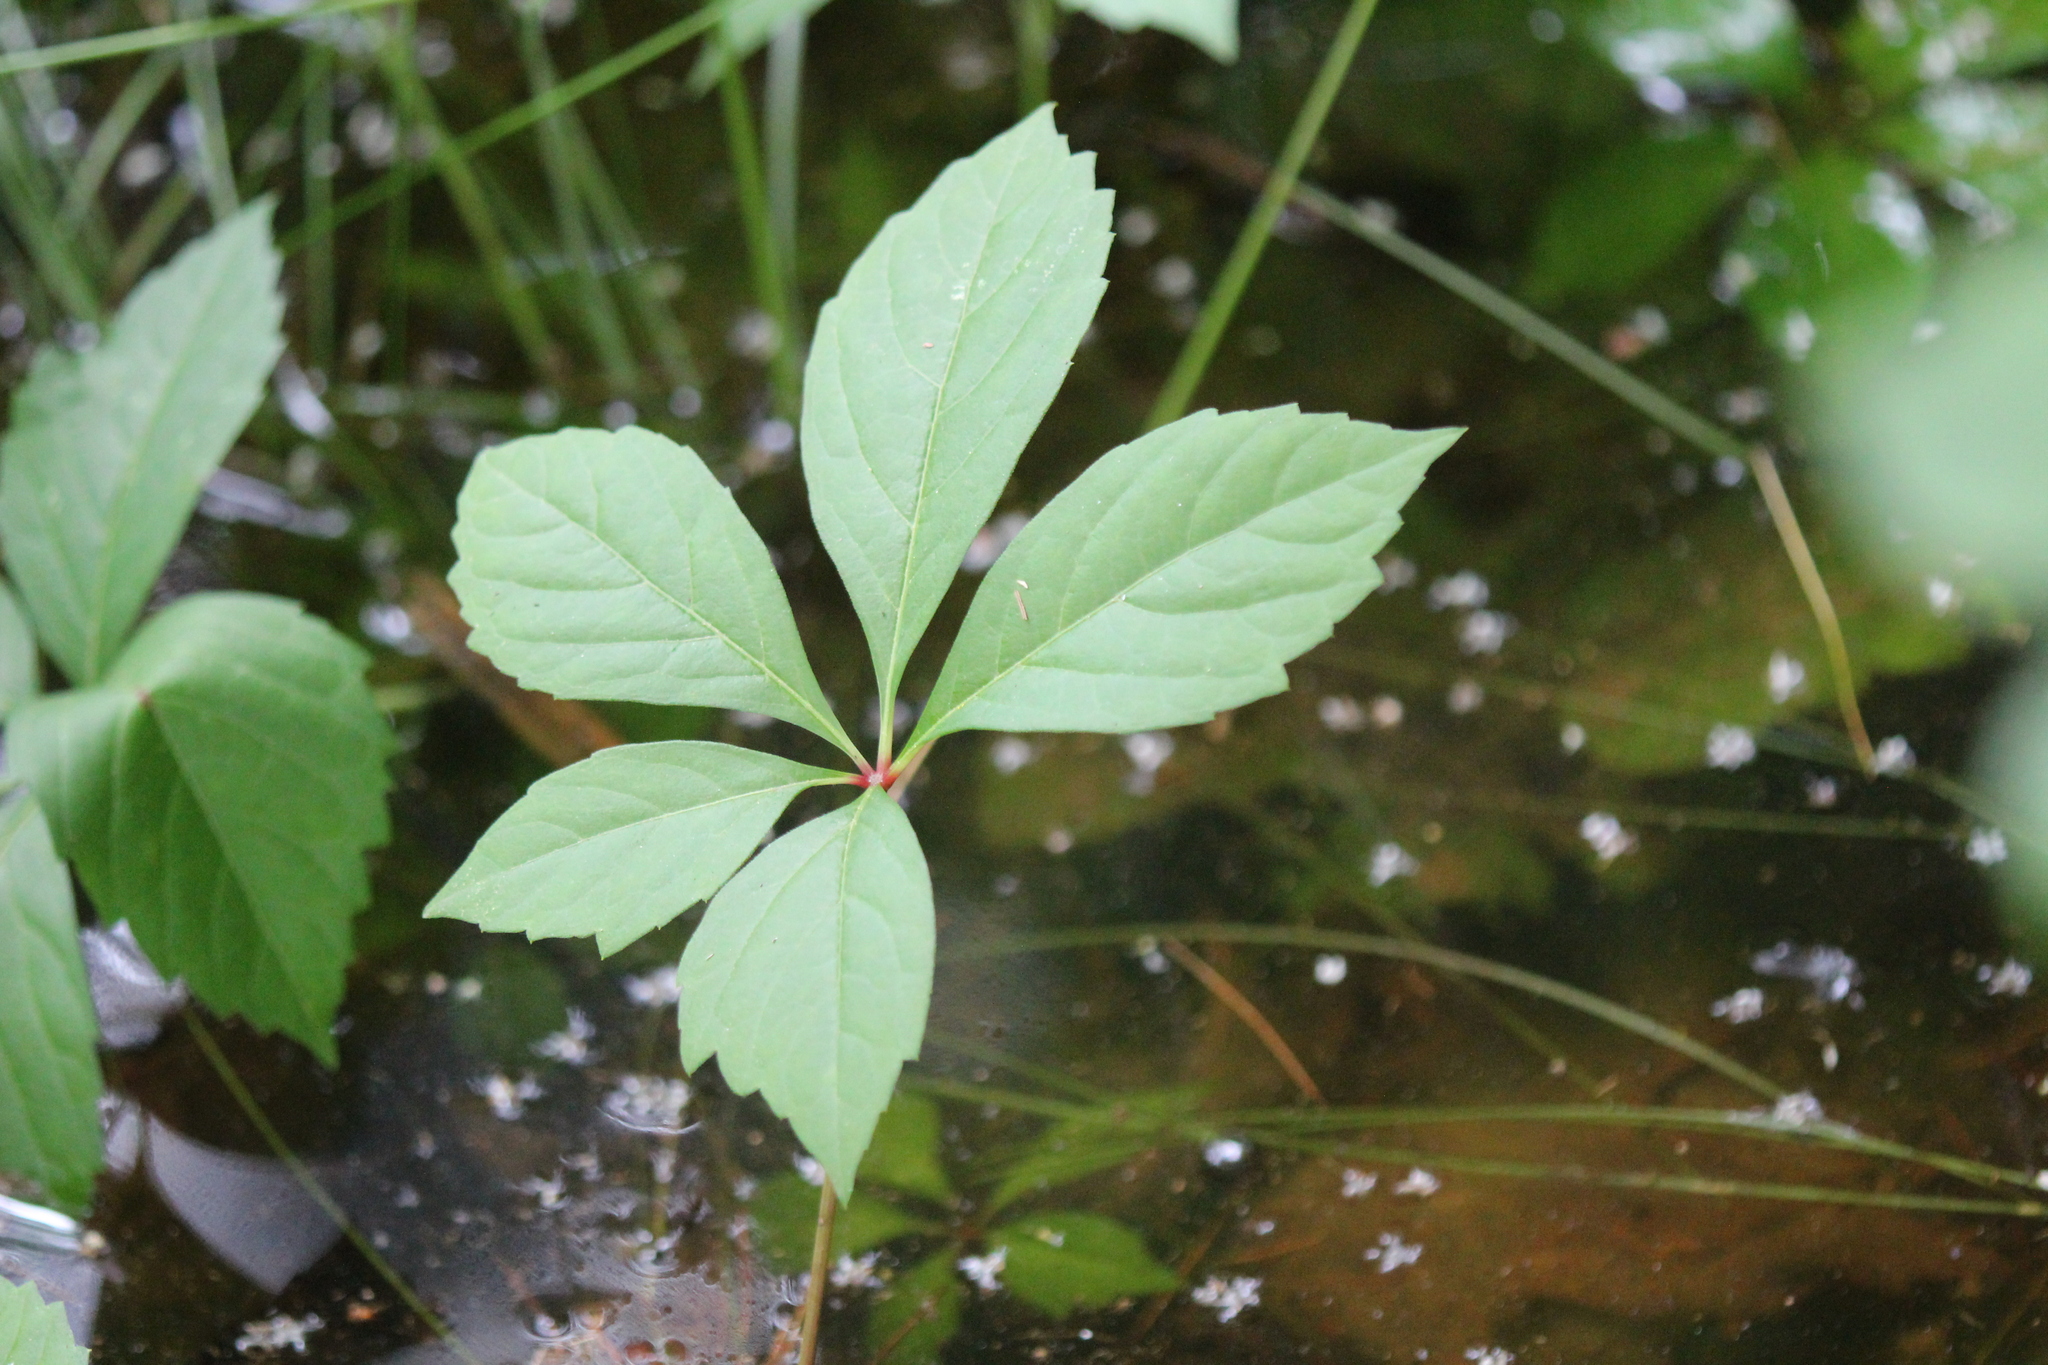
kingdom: Plantae
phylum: Tracheophyta
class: Magnoliopsida
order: Vitales
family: Vitaceae
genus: Parthenocissus
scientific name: Parthenocissus quinquefolia
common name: Virginia-creeper
